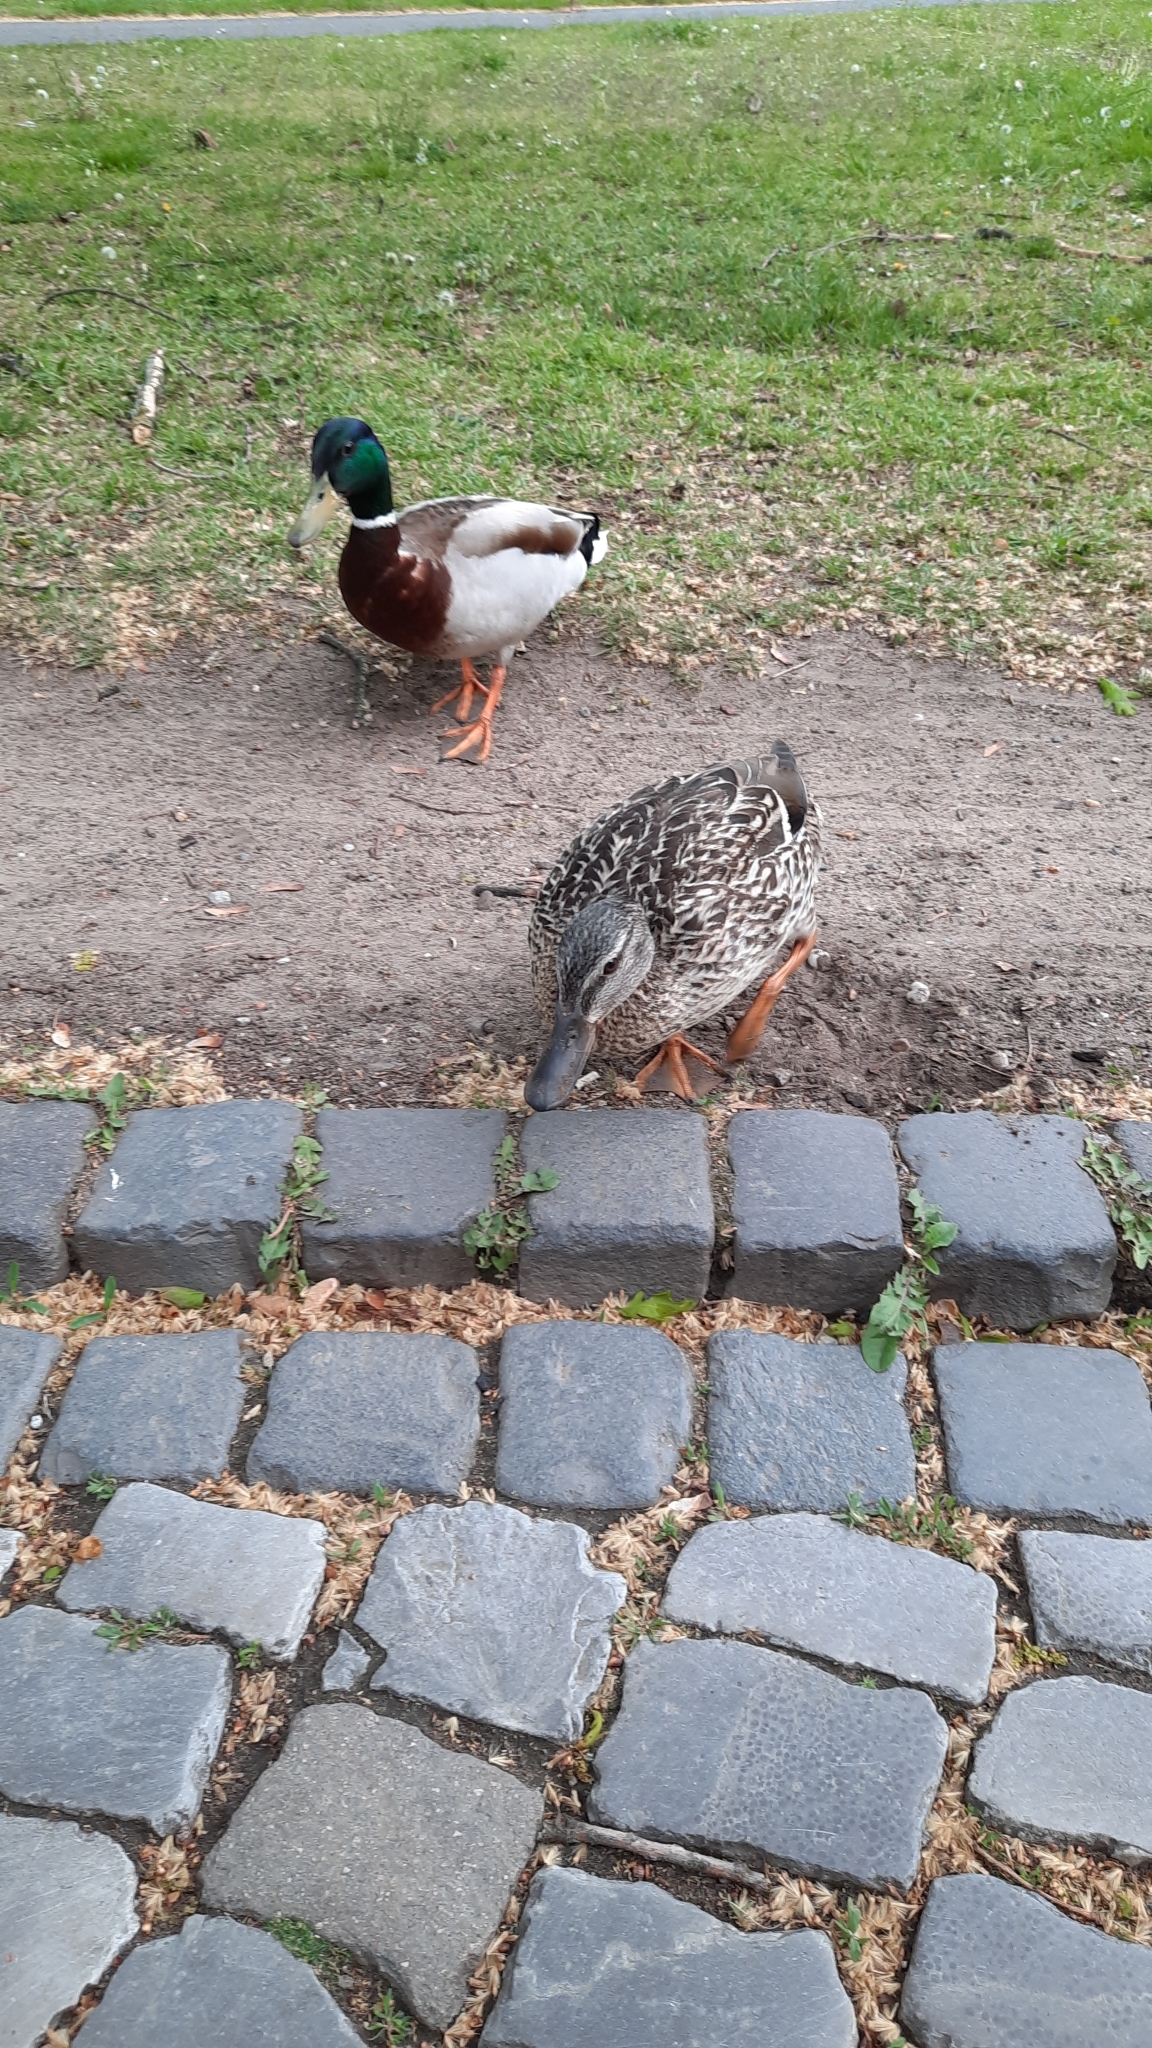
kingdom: Animalia
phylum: Chordata
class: Aves
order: Anseriformes
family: Anatidae
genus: Anas
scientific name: Anas platyrhynchos
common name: Mallard
